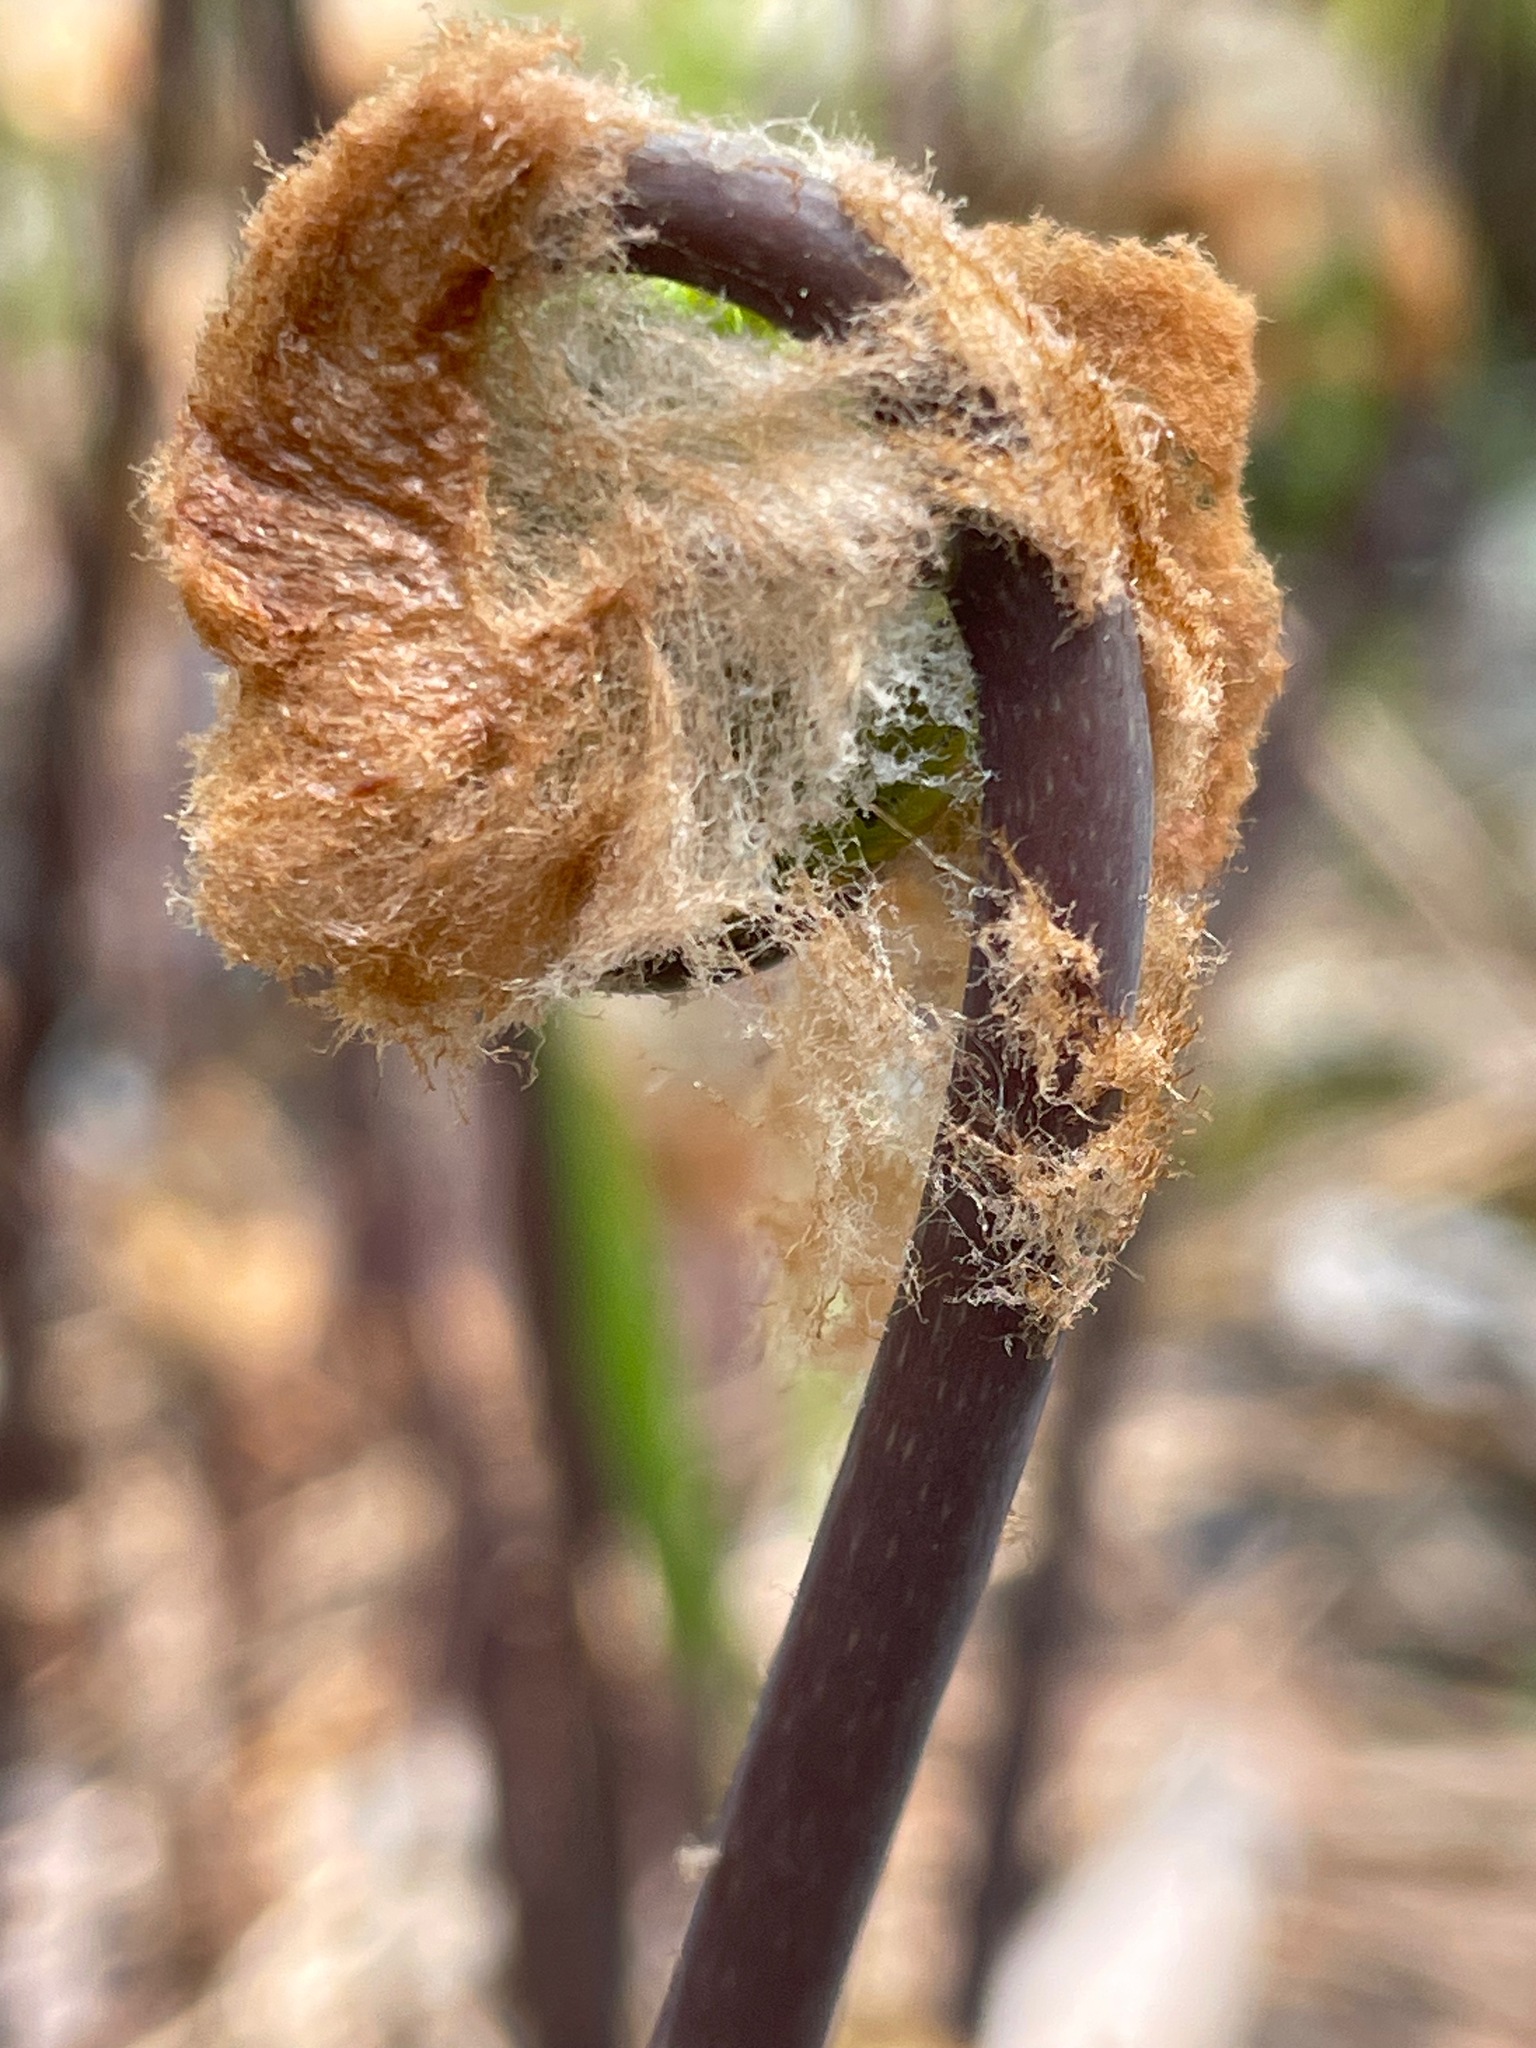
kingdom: Plantae
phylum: Tracheophyta
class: Polypodiopsida
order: Osmundales
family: Osmundaceae
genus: Osmunda
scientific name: Osmunda spectabilis
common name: American royal fern
